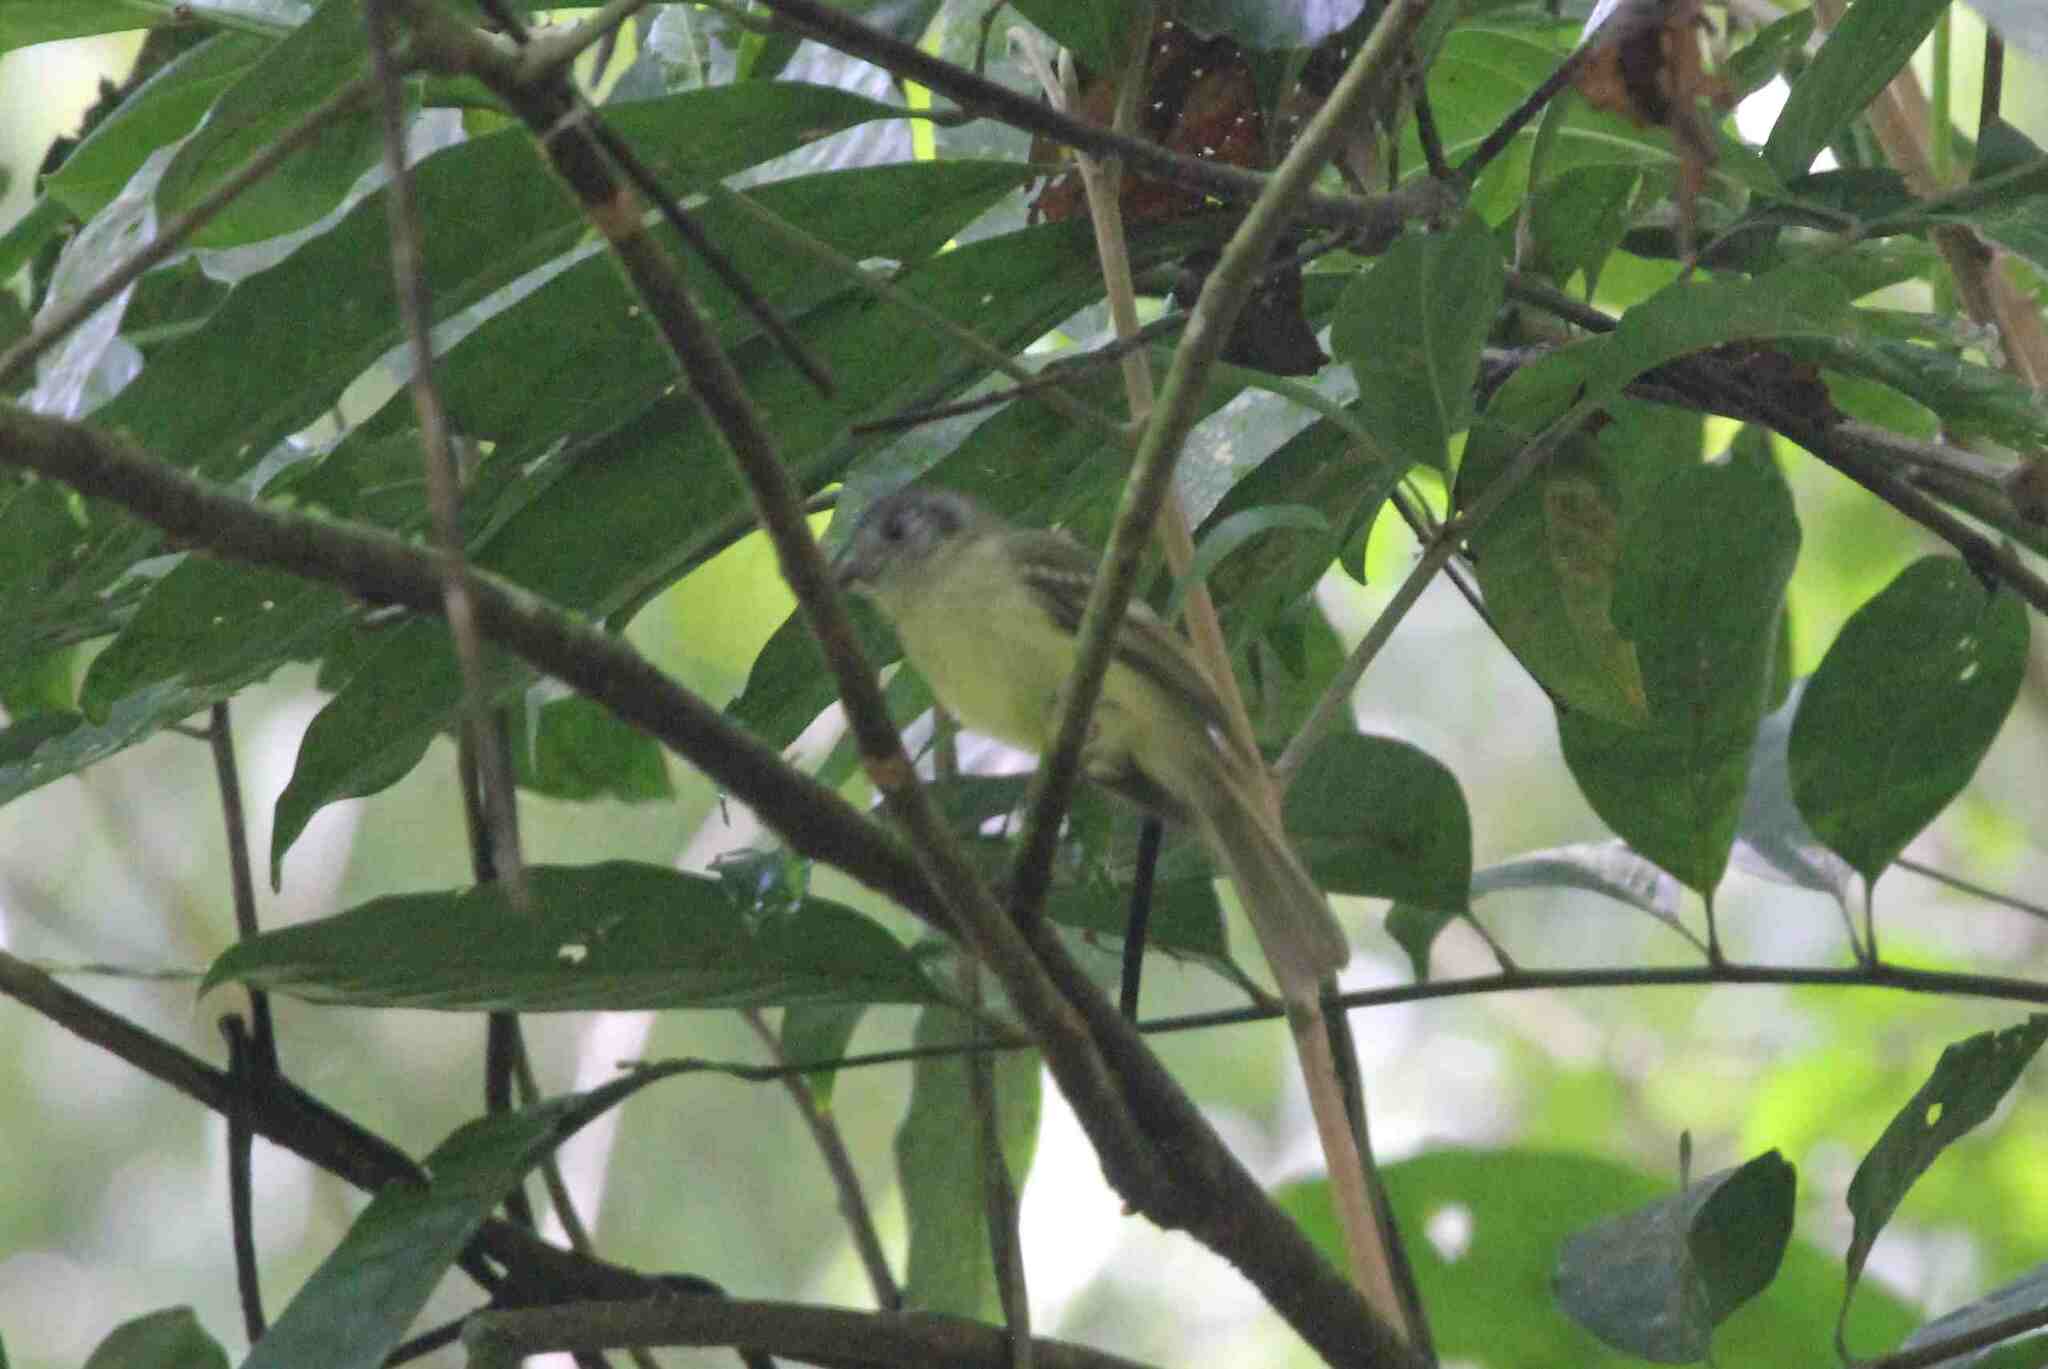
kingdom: Animalia
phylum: Chordata
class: Aves
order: Passeriformes
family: Tyrannidae
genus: Leptopogon
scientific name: Leptopogon superciliaris
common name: Slaty-capped flycatcher
